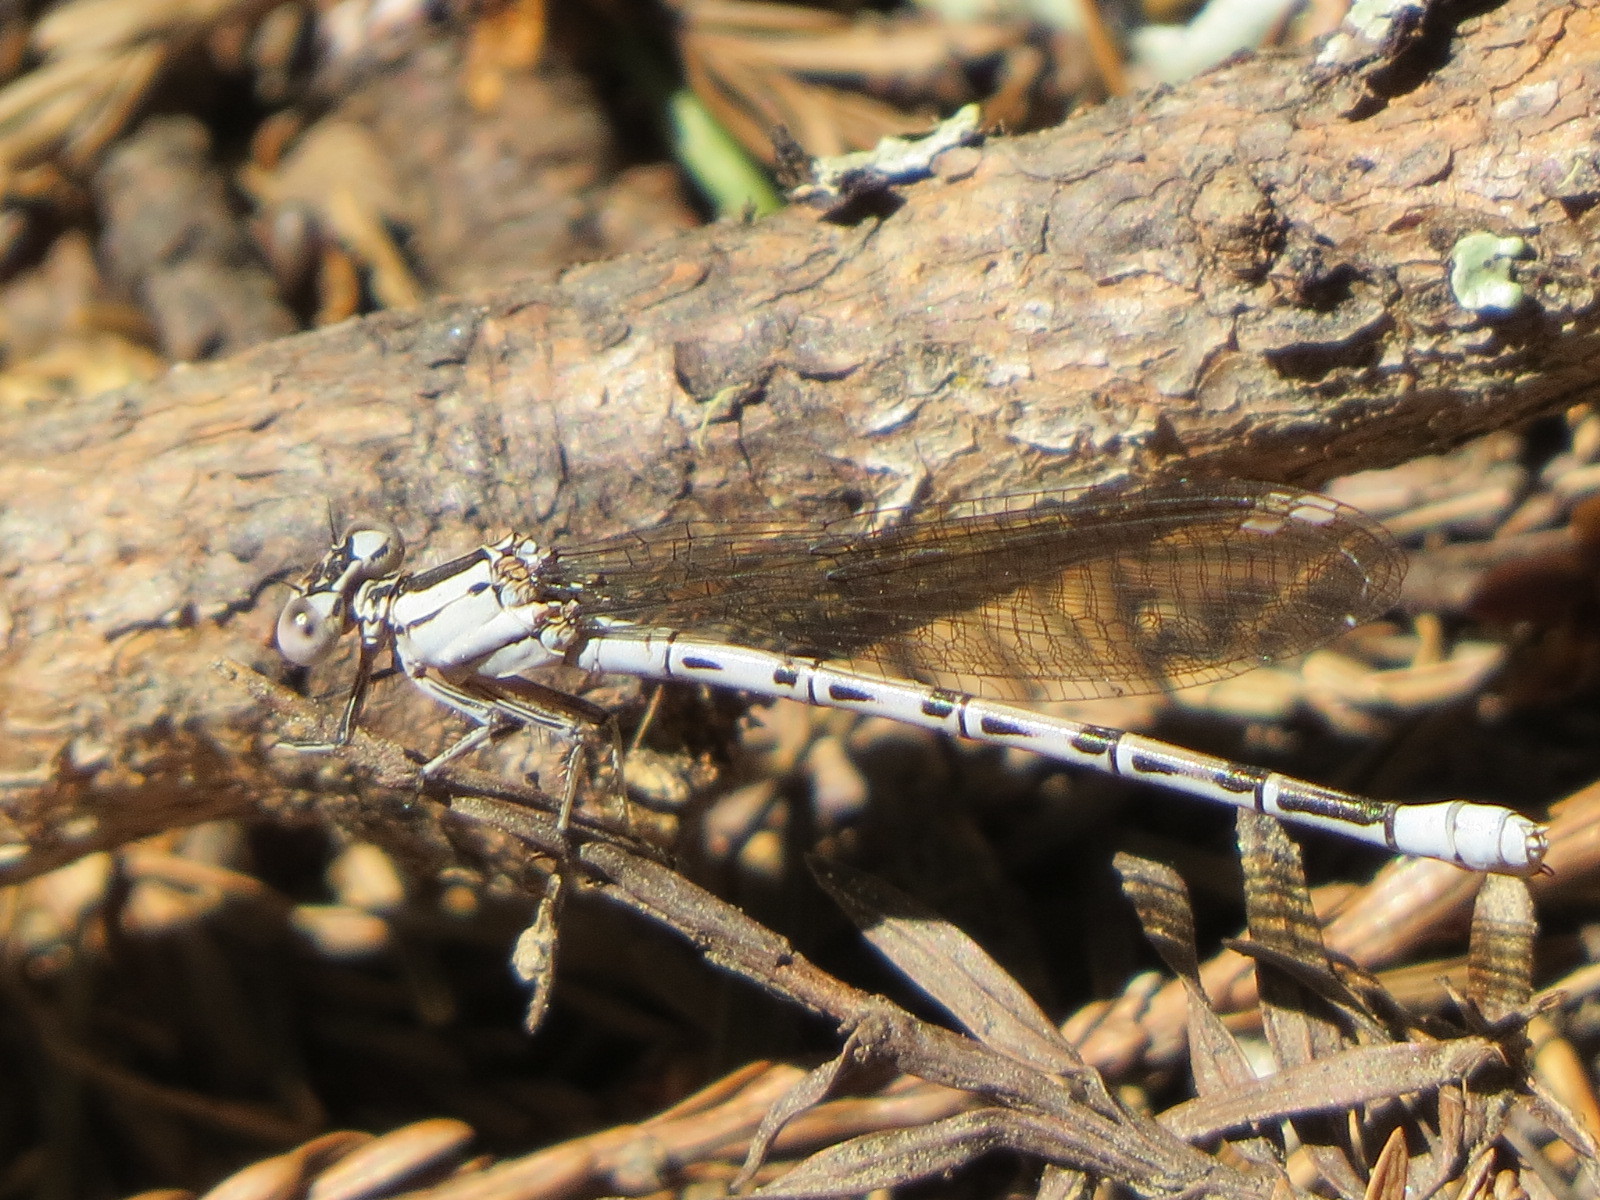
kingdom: Animalia
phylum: Arthropoda
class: Insecta
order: Odonata
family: Coenagrionidae
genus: Argia
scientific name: Argia vivida
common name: Vivid dancer
